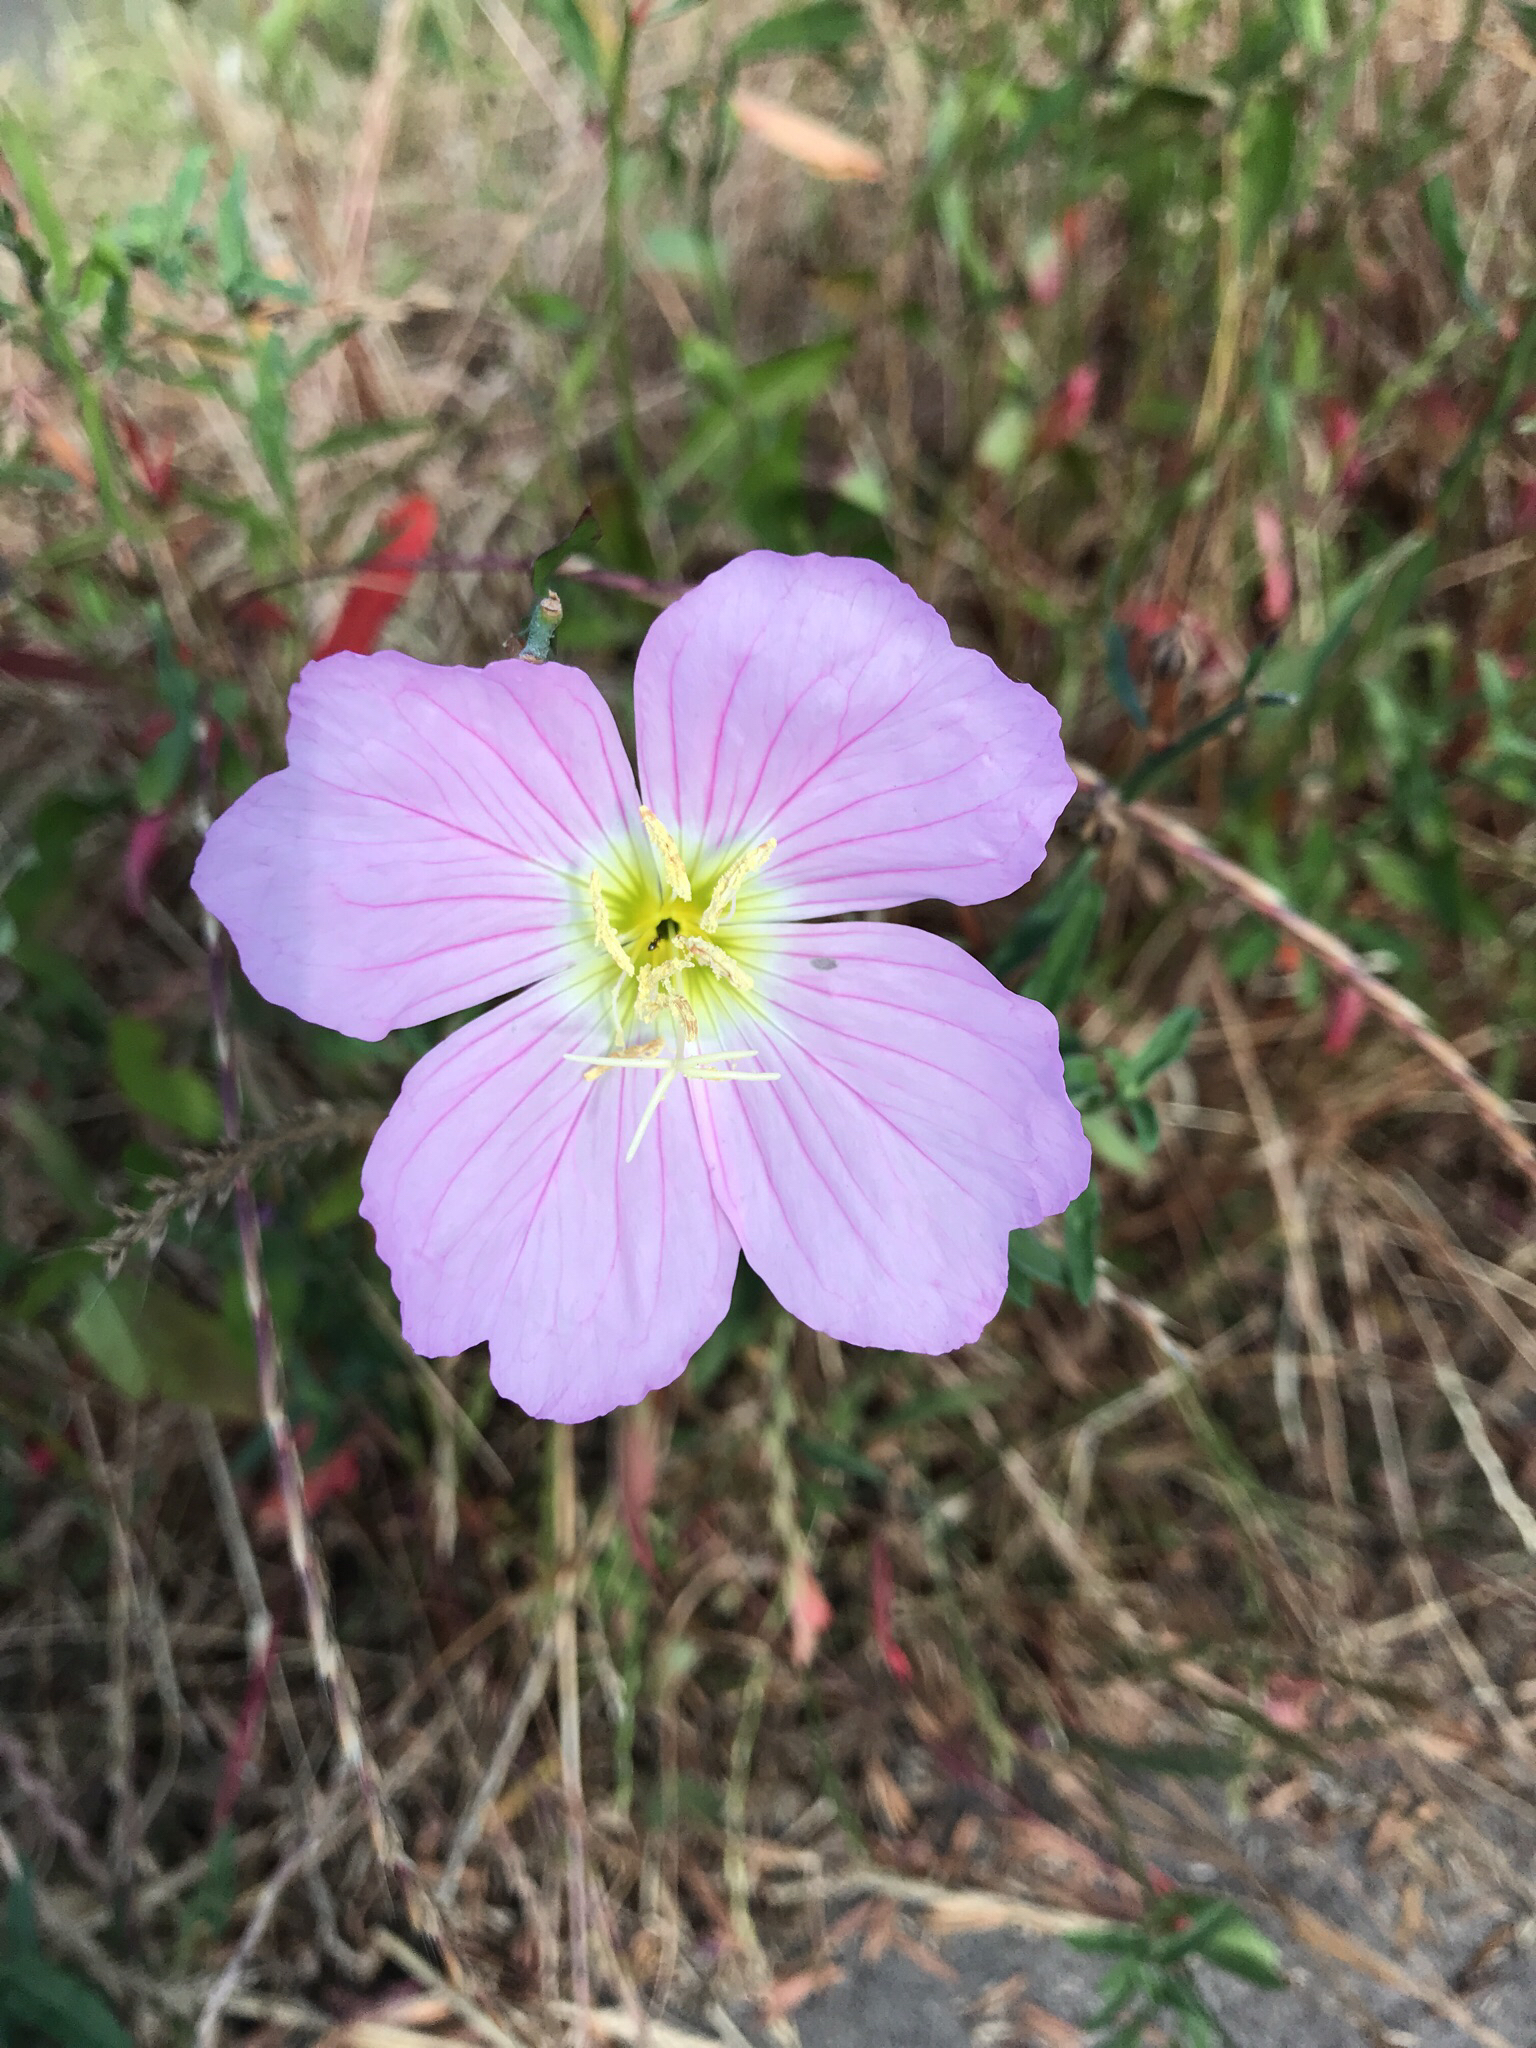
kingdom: Plantae
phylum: Tracheophyta
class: Magnoliopsida
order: Myrtales
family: Onagraceae
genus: Oenothera
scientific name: Oenothera speciosa
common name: White evening-primrose
